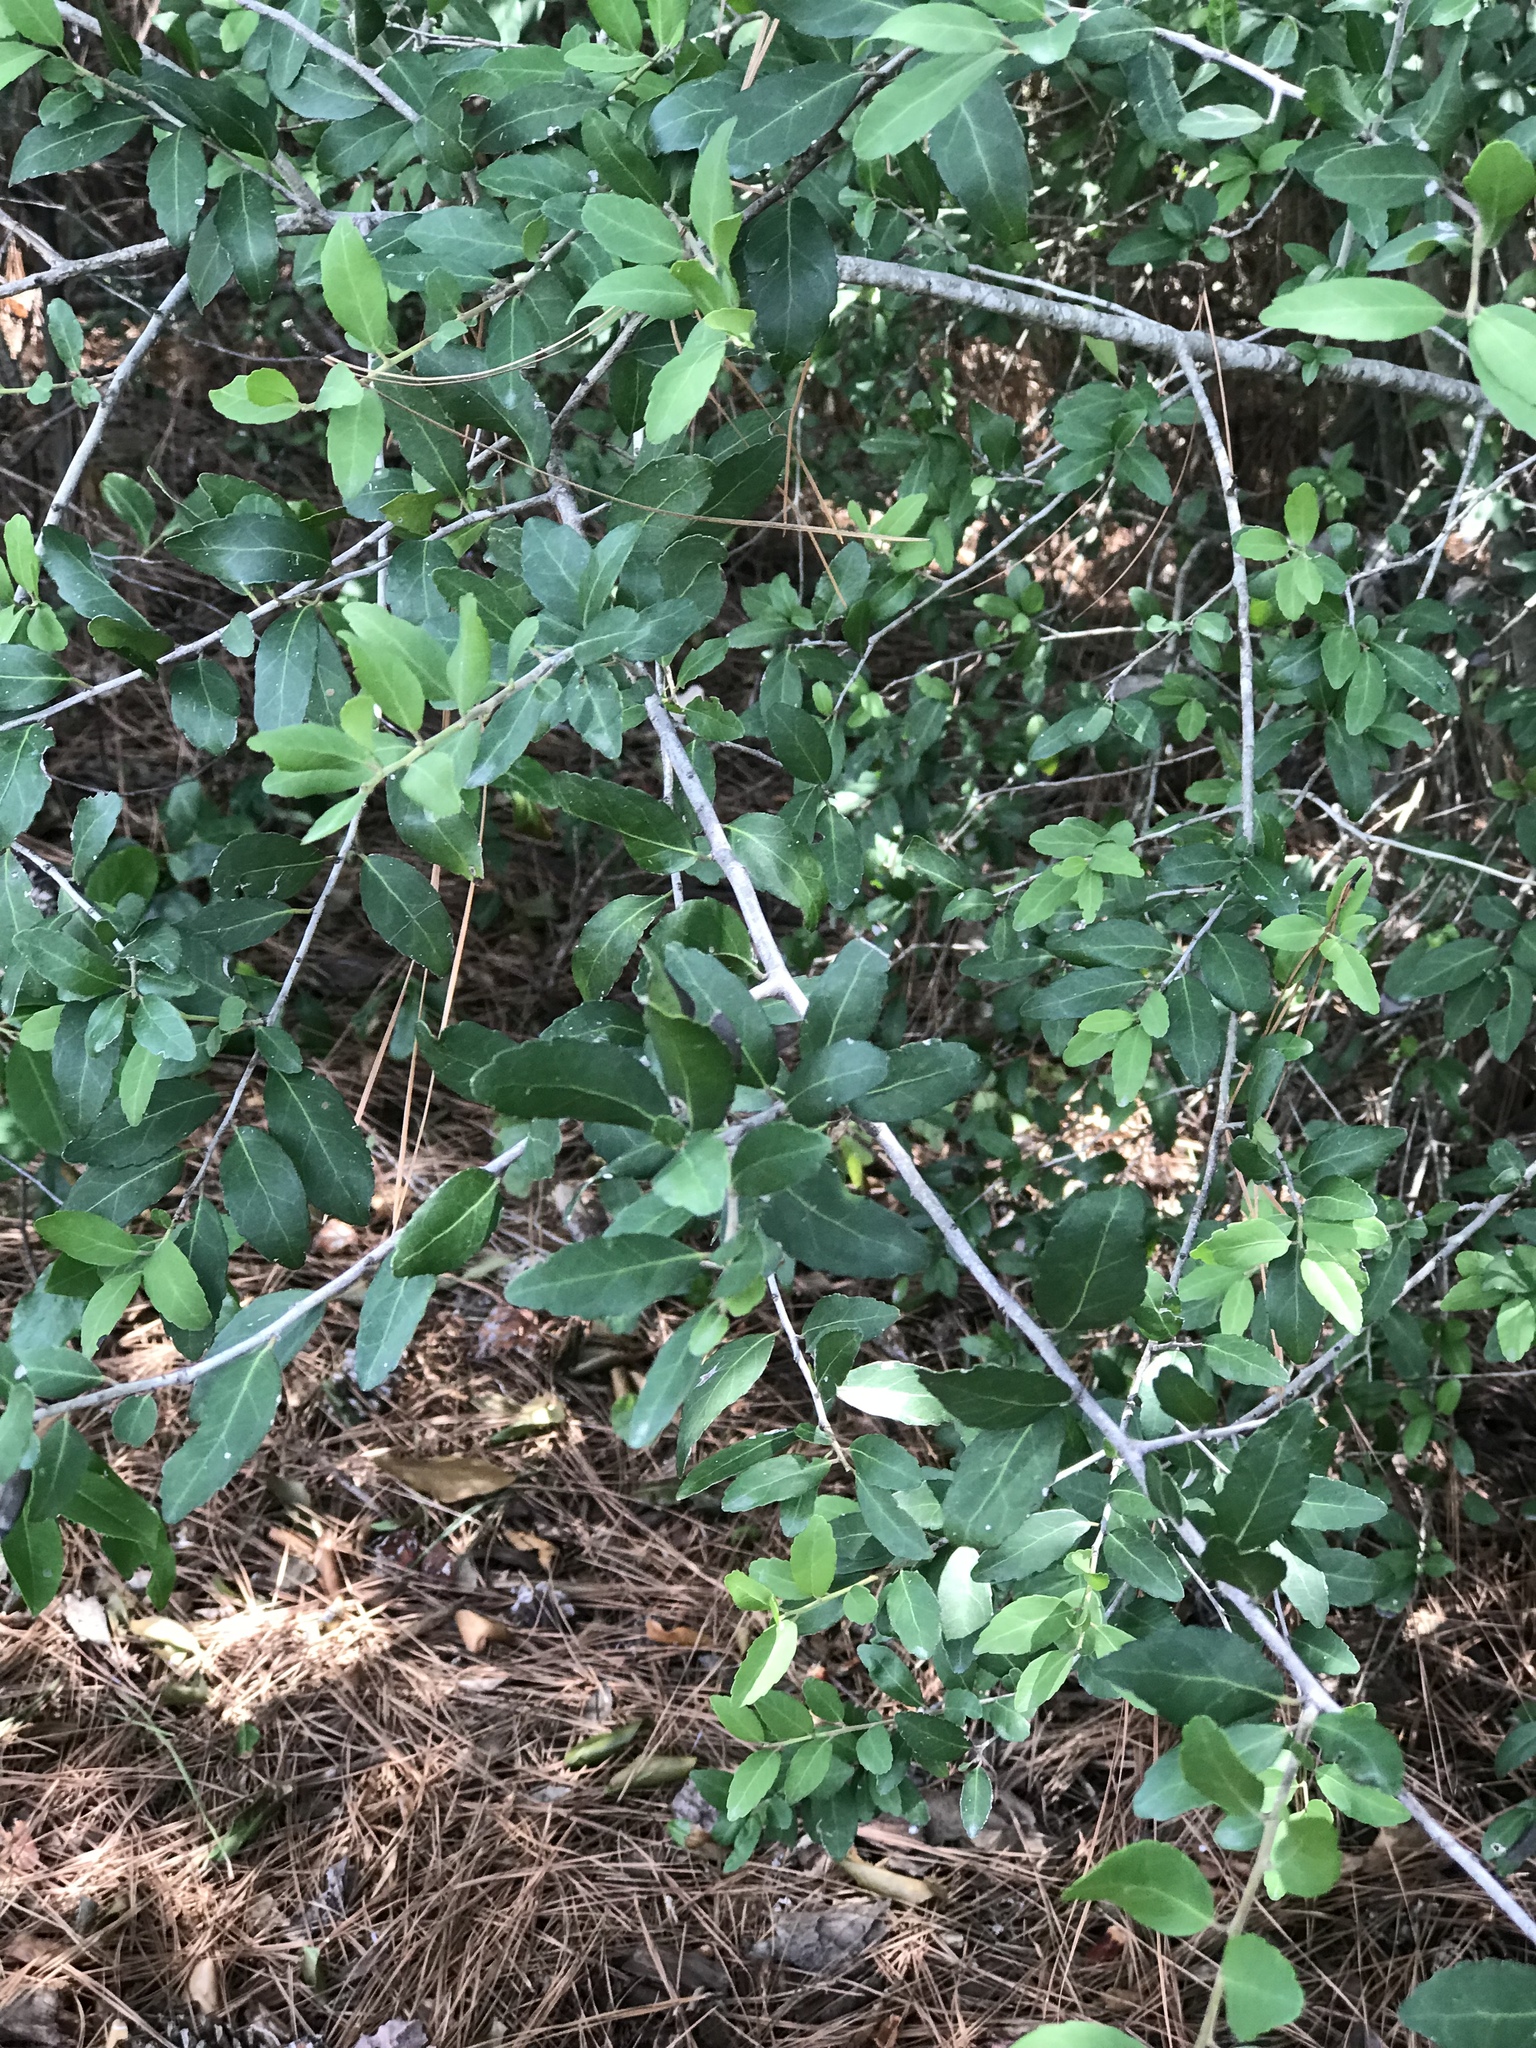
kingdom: Plantae
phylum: Tracheophyta
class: Magnoliopsida
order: Aquifoliales
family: Aquifoliaceae
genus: Ilex
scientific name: Ilex vomitoria
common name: Yaupon holly
